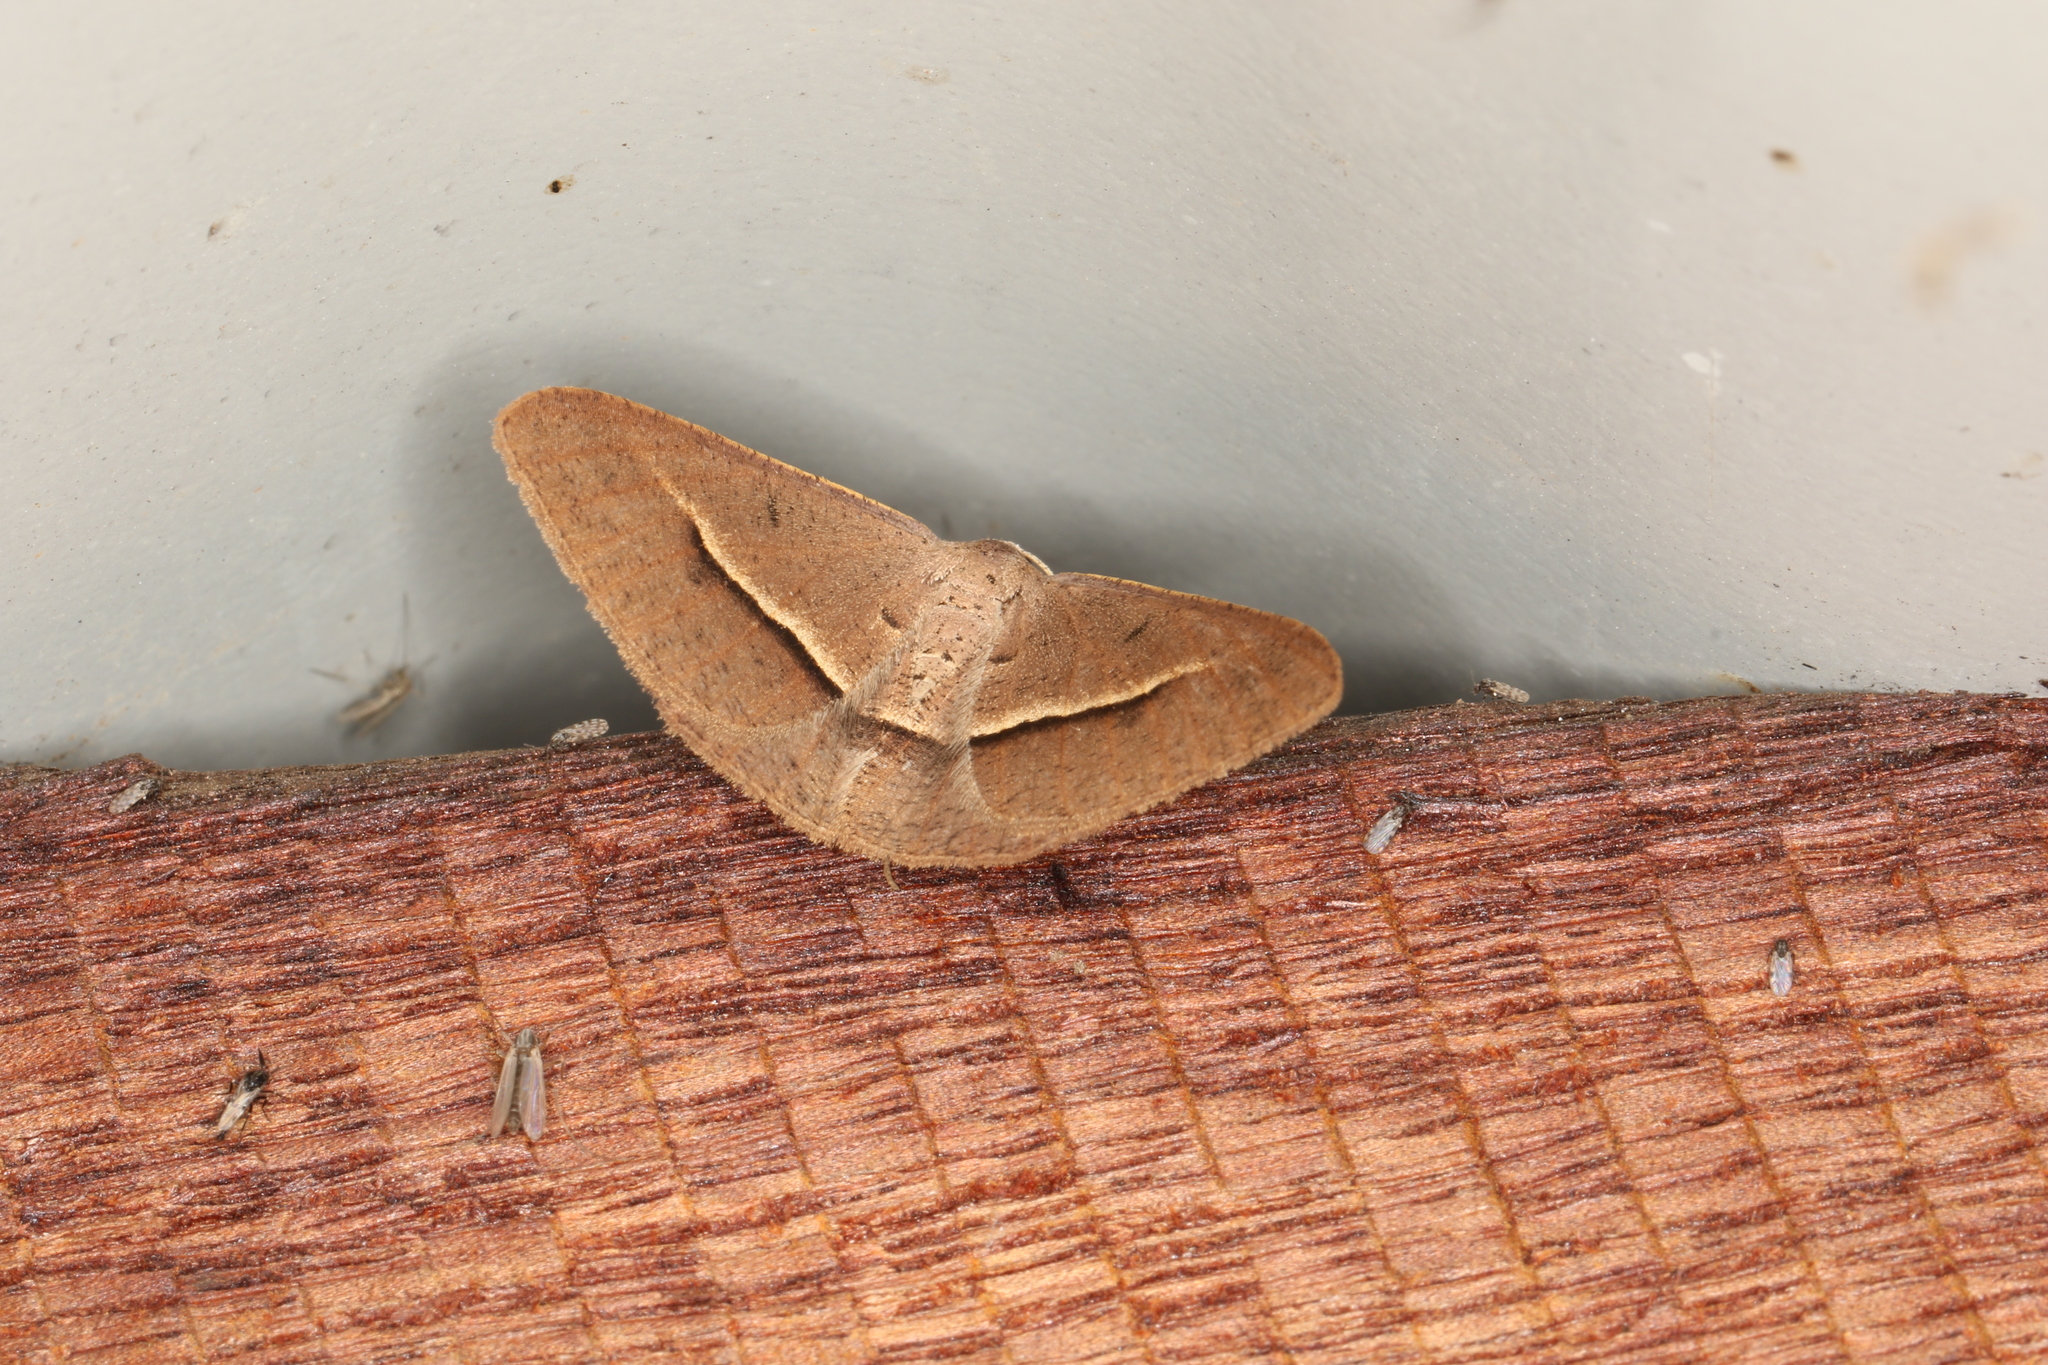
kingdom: Animalia
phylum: Arthropoda
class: Insecta
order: Lepidoptera
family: Geometridae
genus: Isturgia
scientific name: Isturgia
